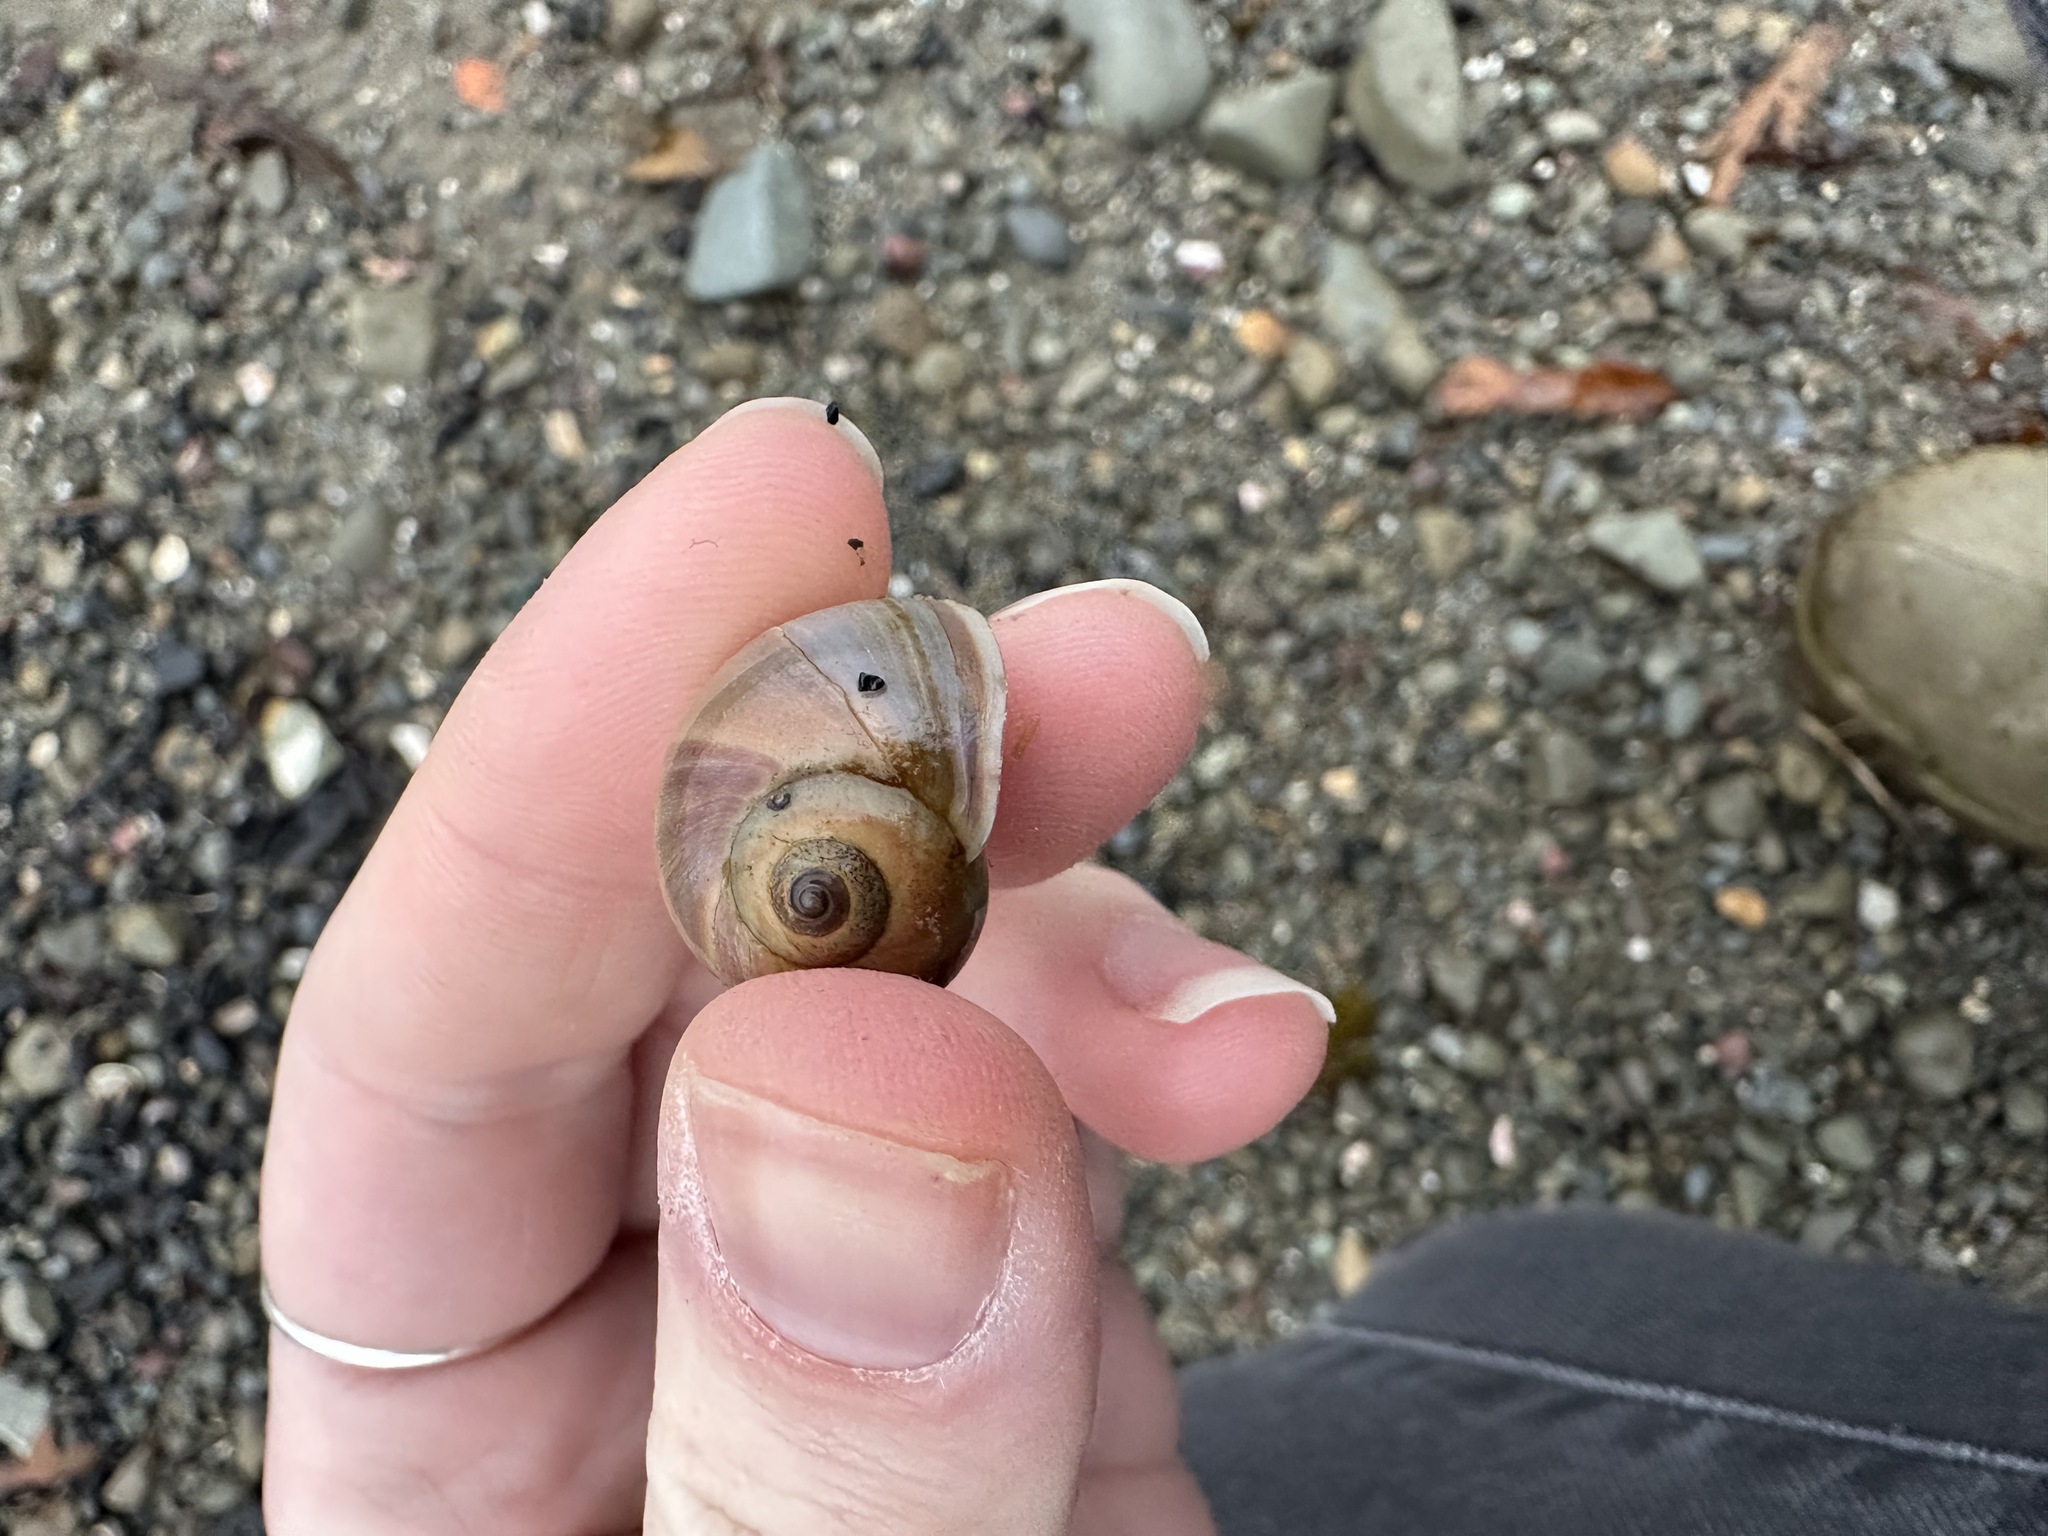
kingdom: Animalia
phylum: Mollusca
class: Gastropoda
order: Littorinimorpha
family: Naticidae
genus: Euspira
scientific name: Euspira heros
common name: Common northern moonsnail
